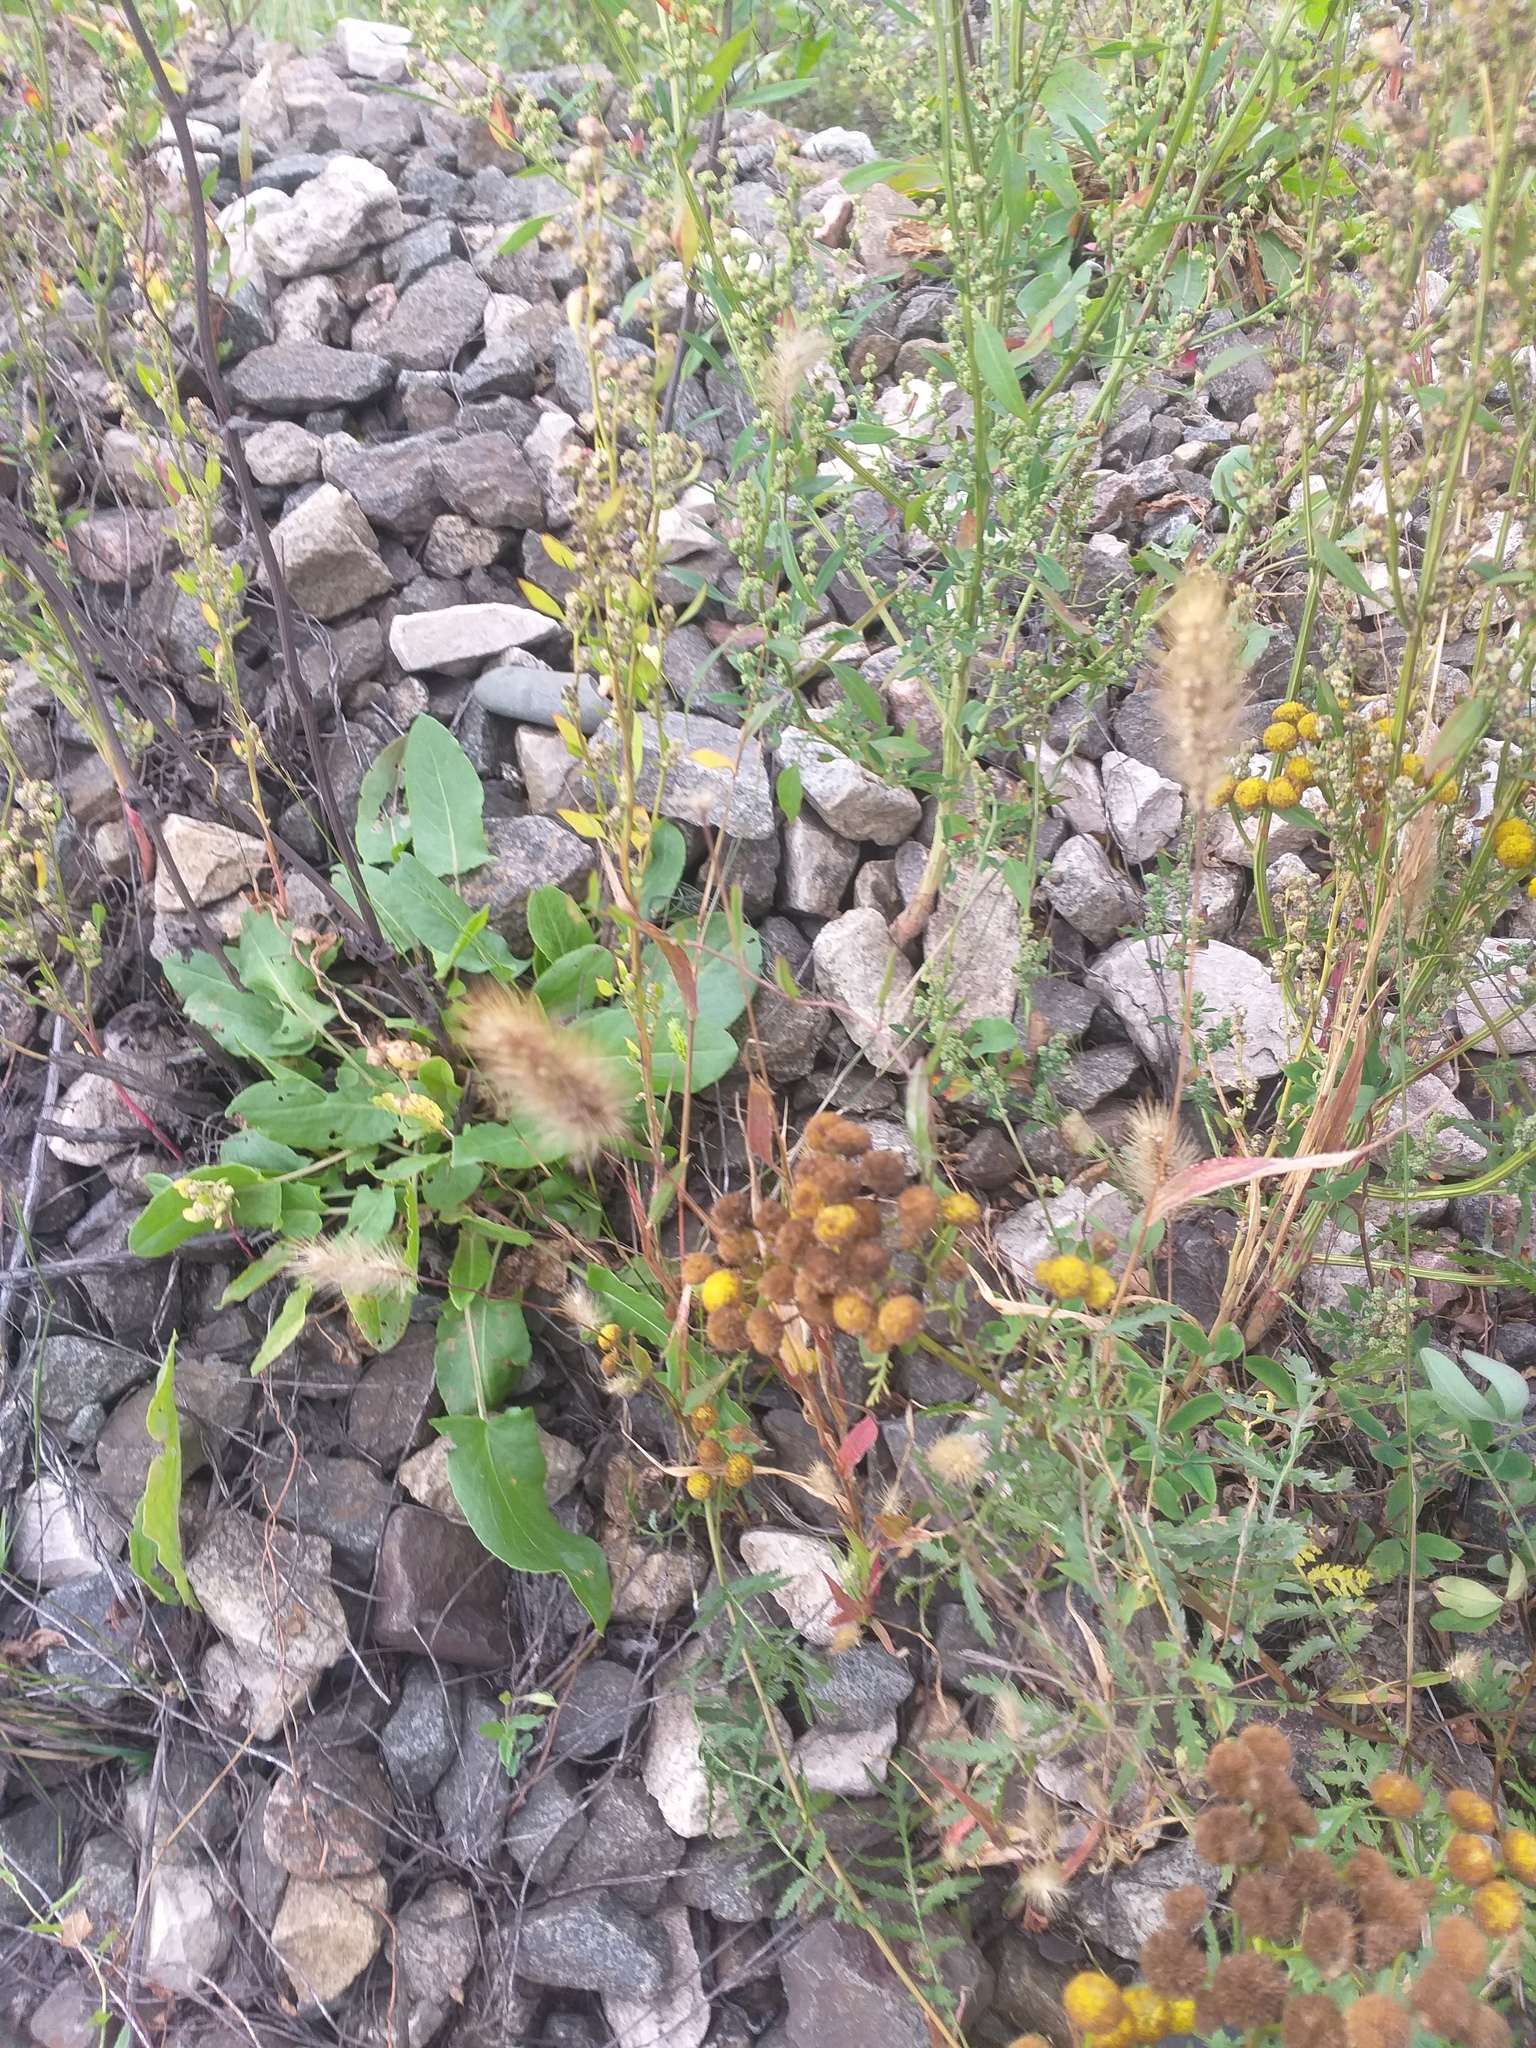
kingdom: Plantae
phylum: Tracheophyta
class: Magnoliopsida
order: Caryophyllales
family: Amaranthaceae
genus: Chenopodium
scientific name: Chenopodium album
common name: Fat-hen
